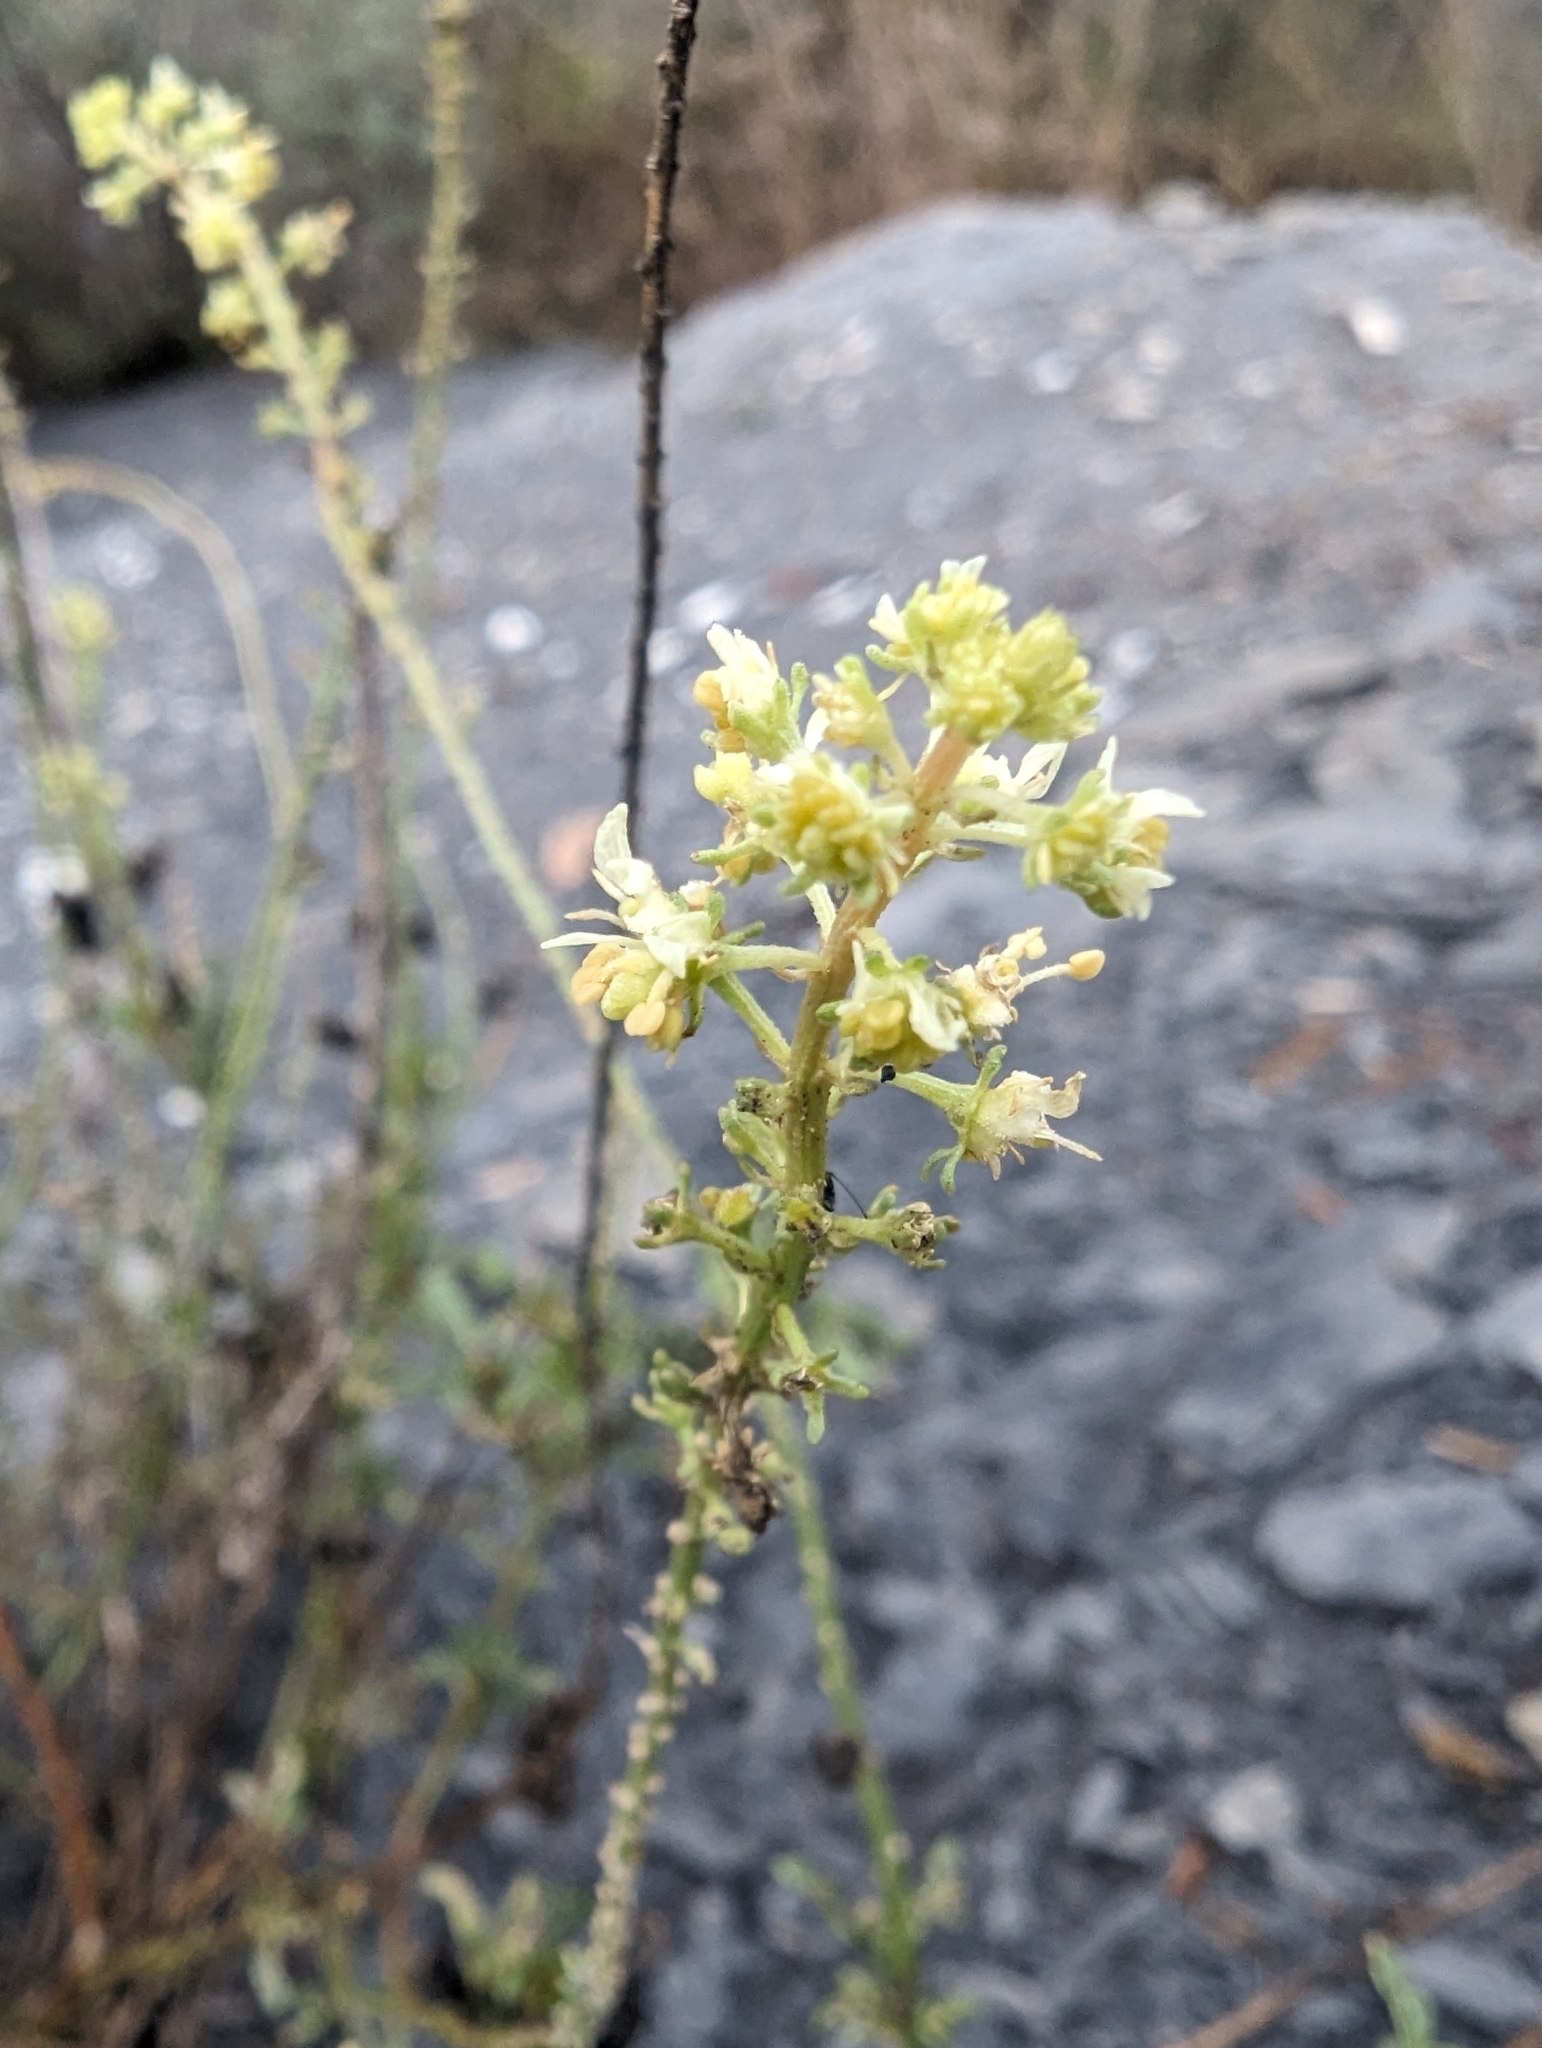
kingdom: Plantae
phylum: Tracheophyta
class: Magnoliopsida
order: Brassicales
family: Resedaceae
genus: Reseda
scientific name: Reseda lutea
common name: Wild mignonette
